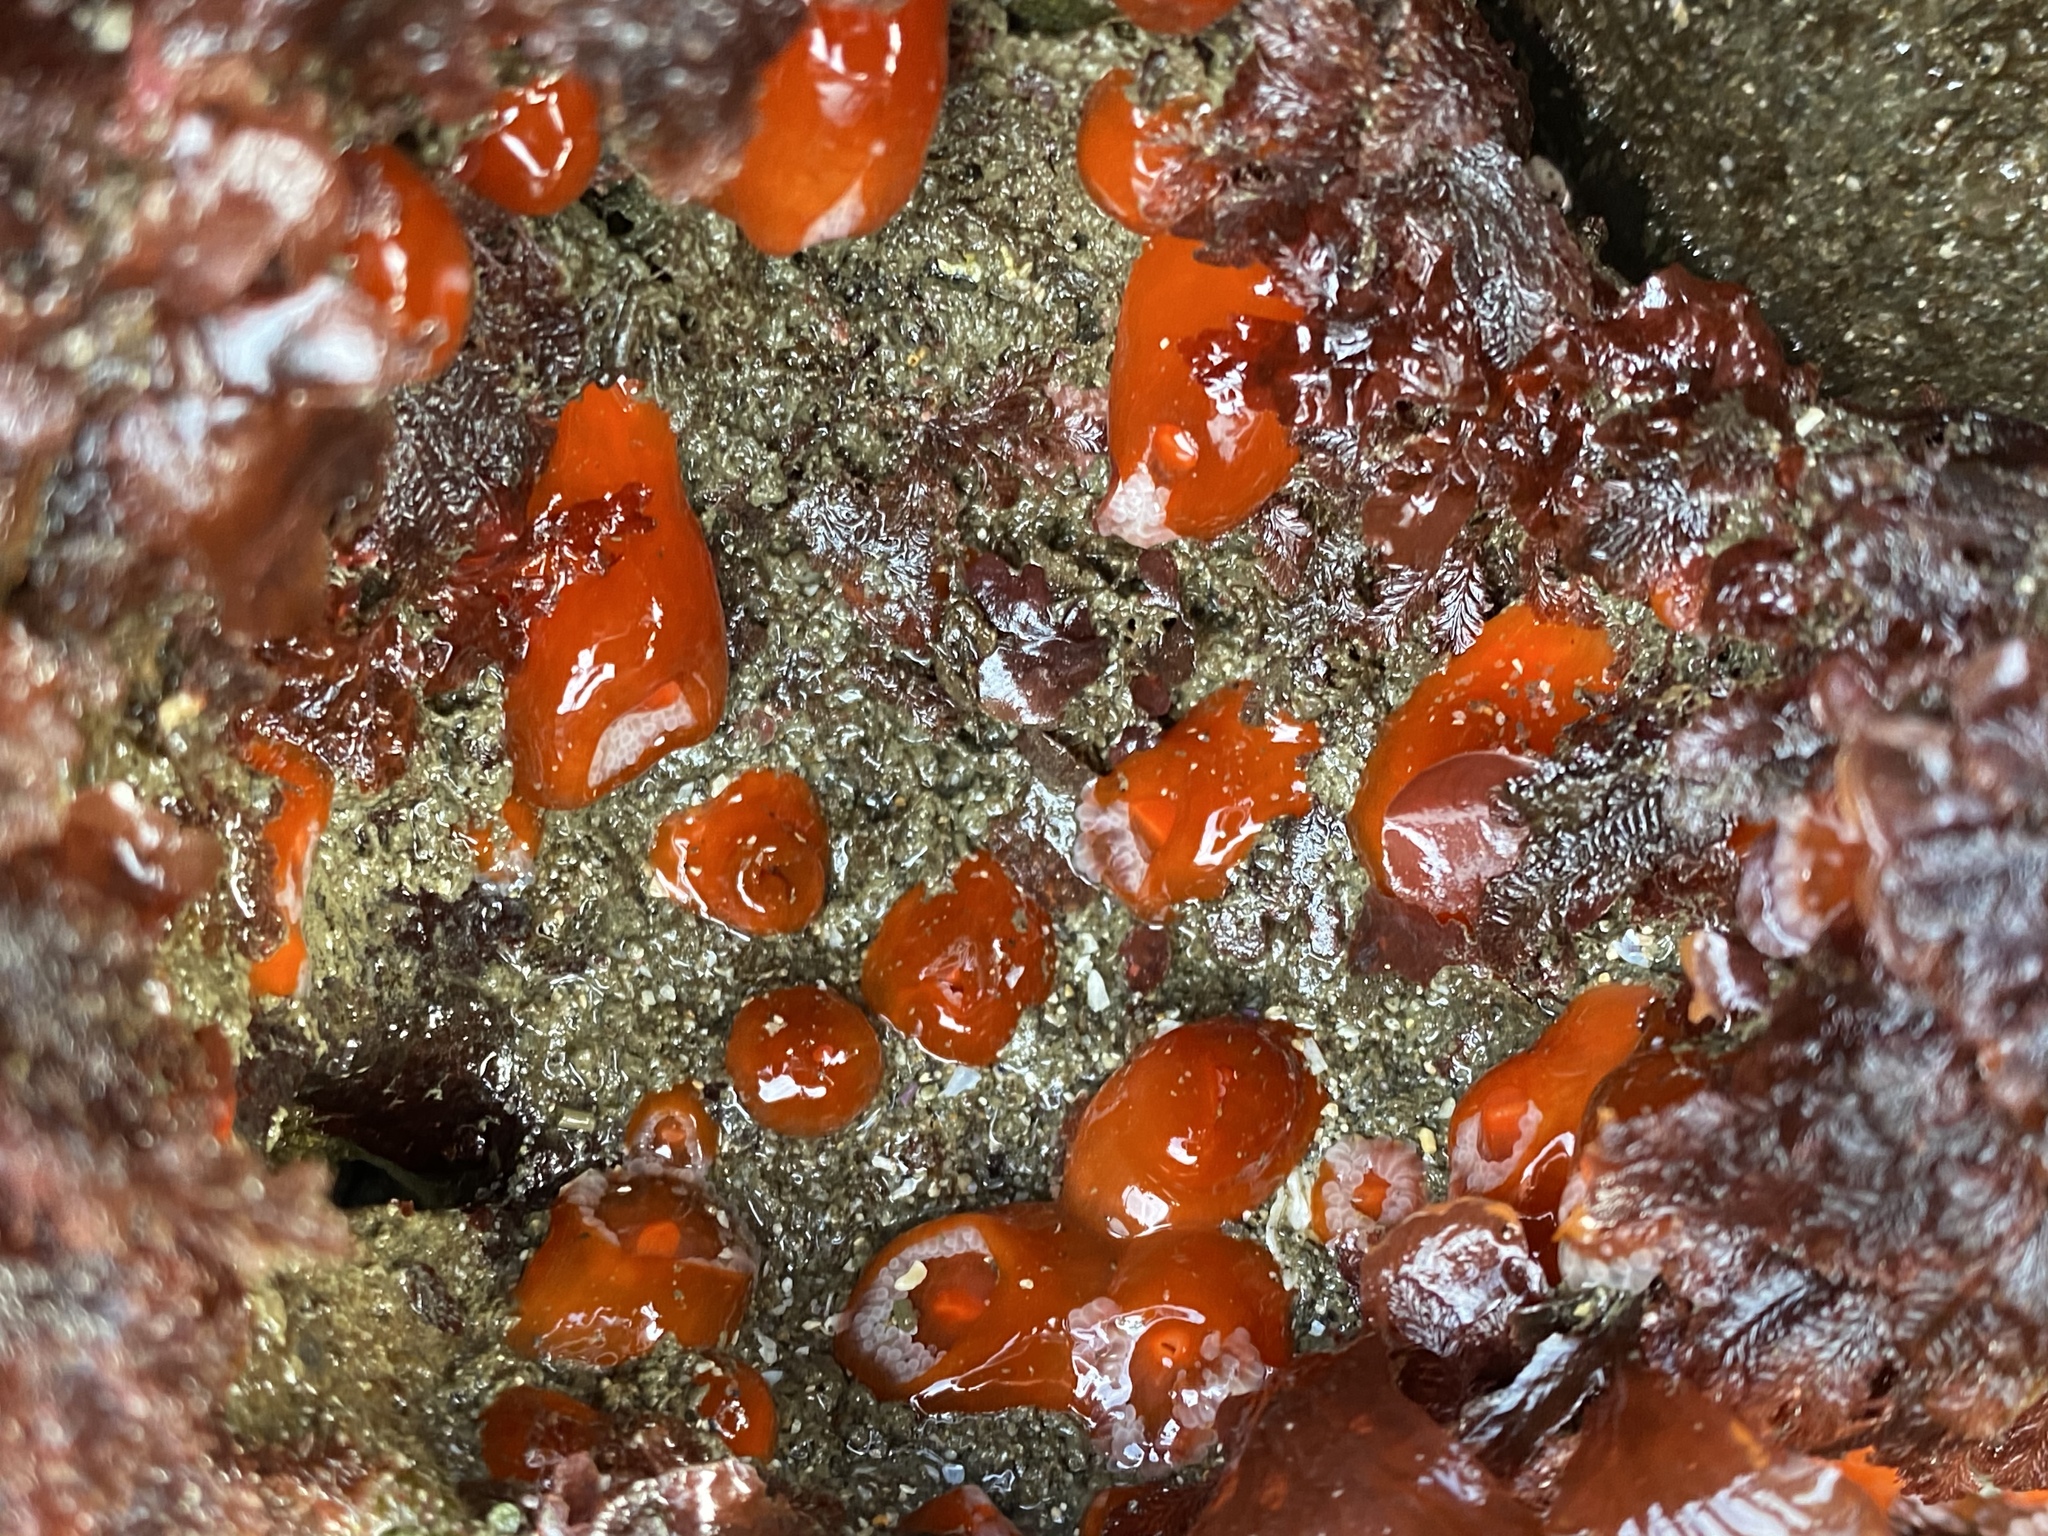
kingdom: Animalia
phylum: Cnidaria
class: Anthozoa
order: Corallimorpharia
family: Corallimorphidae
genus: Corynactis
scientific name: Corynactis californica
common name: Strawberry corallimorpharian
